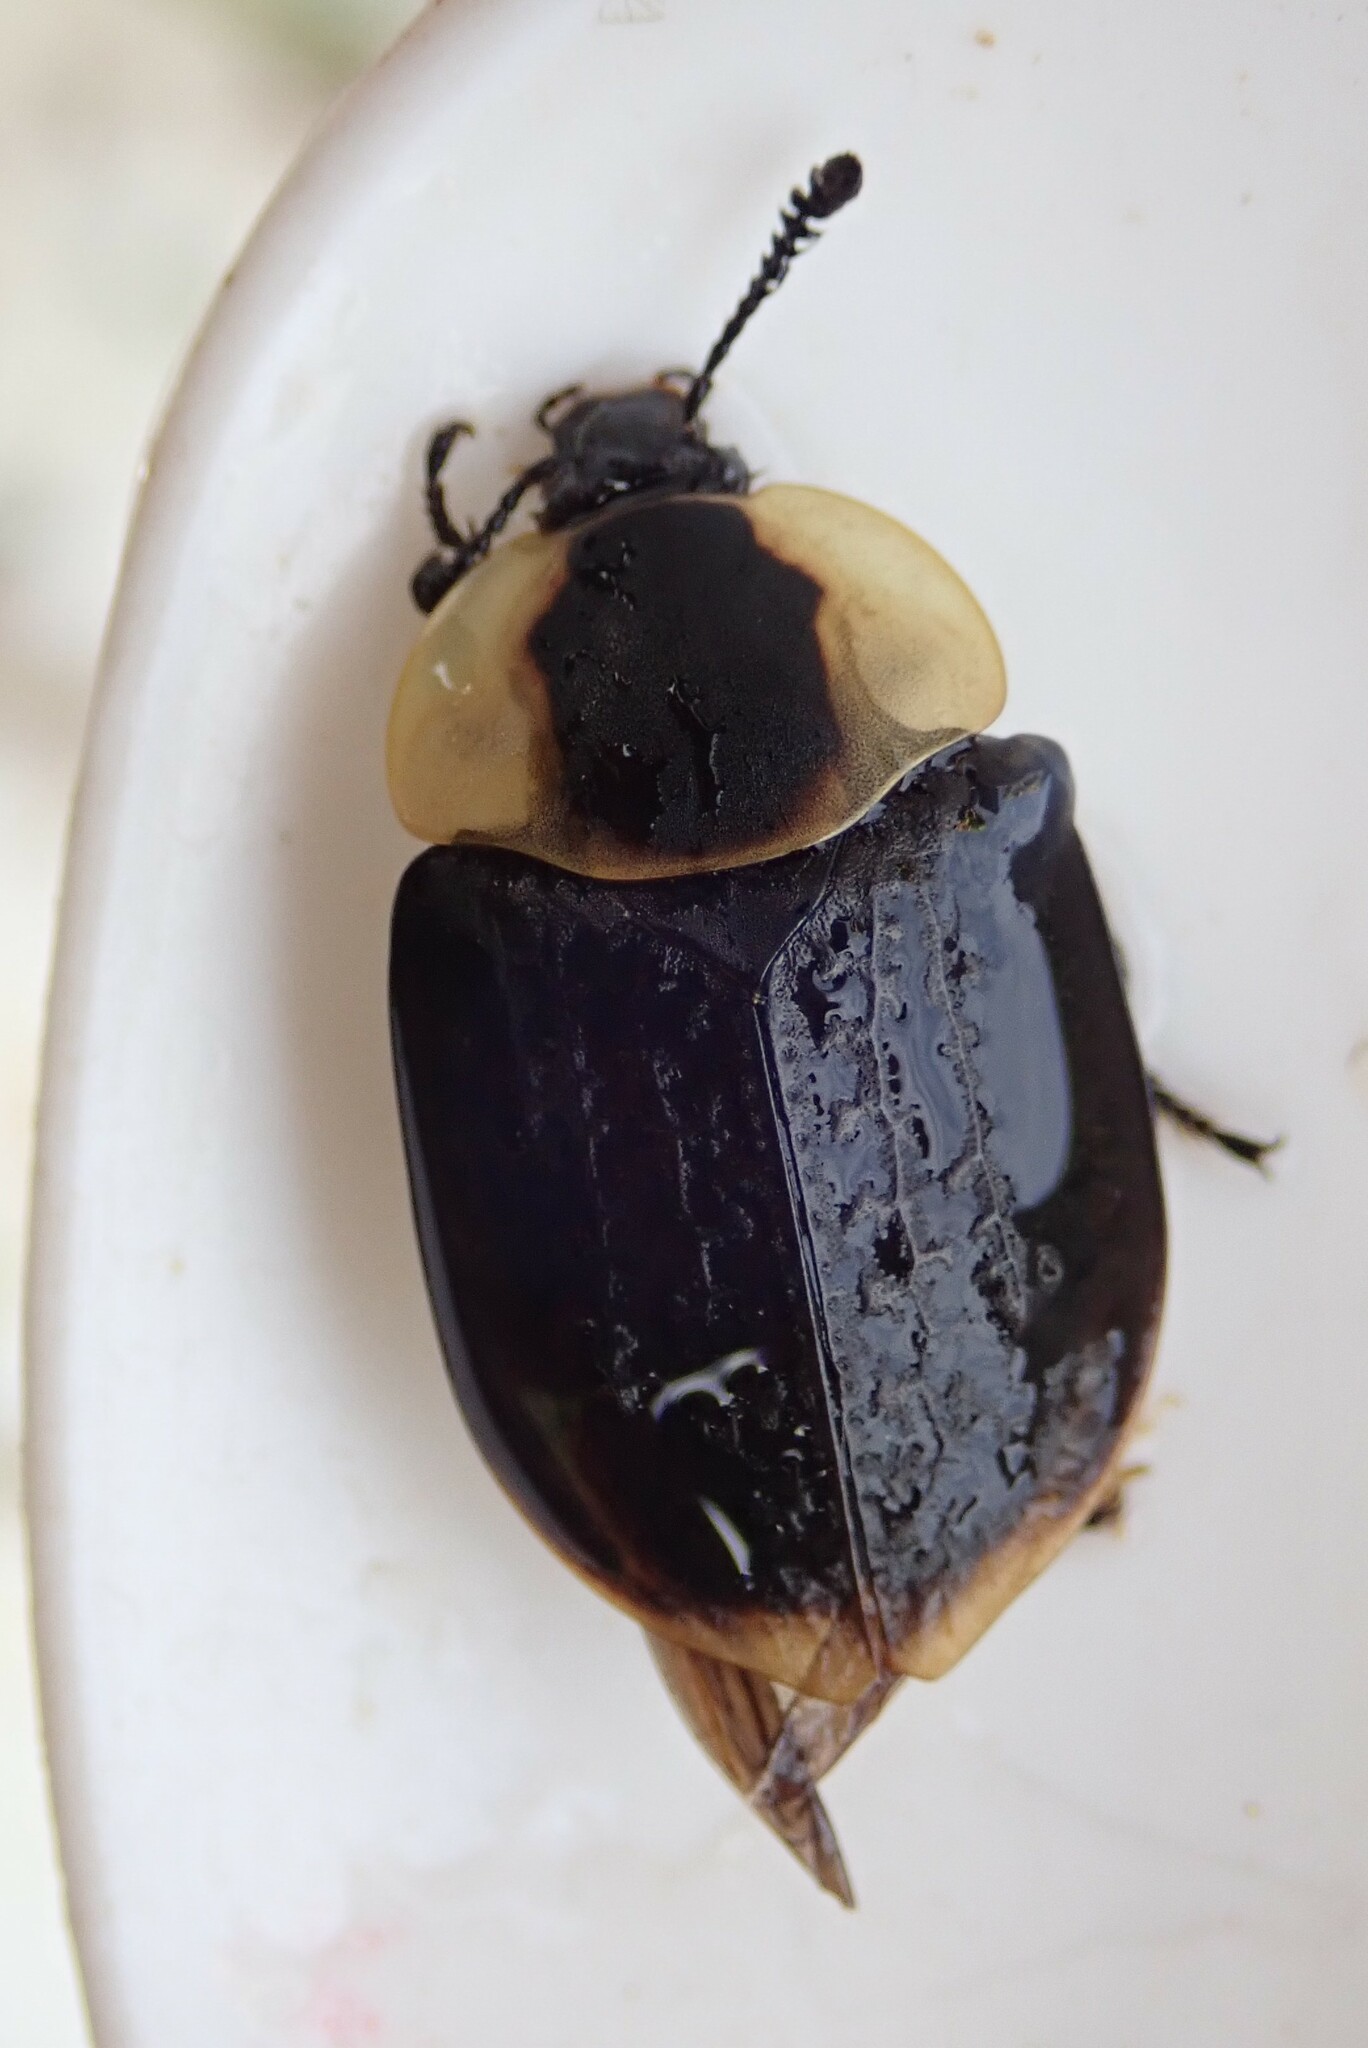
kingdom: Animalia
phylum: Arthropoda
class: Insecta
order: Coleoptera
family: Staphylinidae
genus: Necrophila
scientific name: Necrophila americana
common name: American carrion beetle
